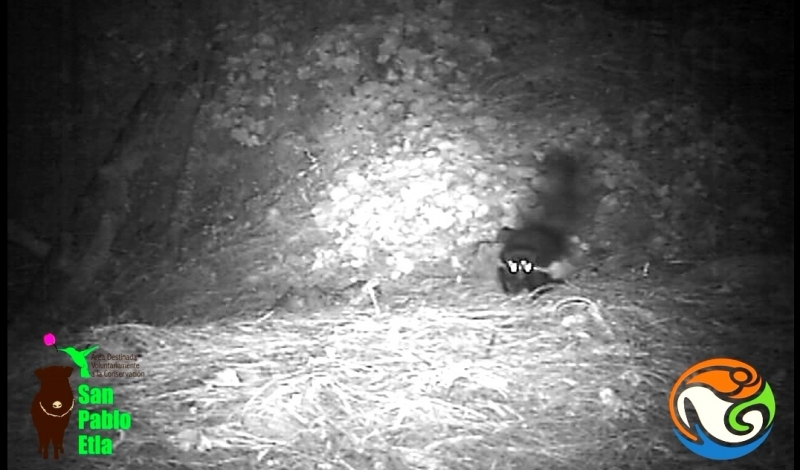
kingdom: Animalia
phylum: Chordata
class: Mammalia
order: Carnivora
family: Mephitidae
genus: Mephitis
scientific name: Mephitis macroura
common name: Hooded skunk
